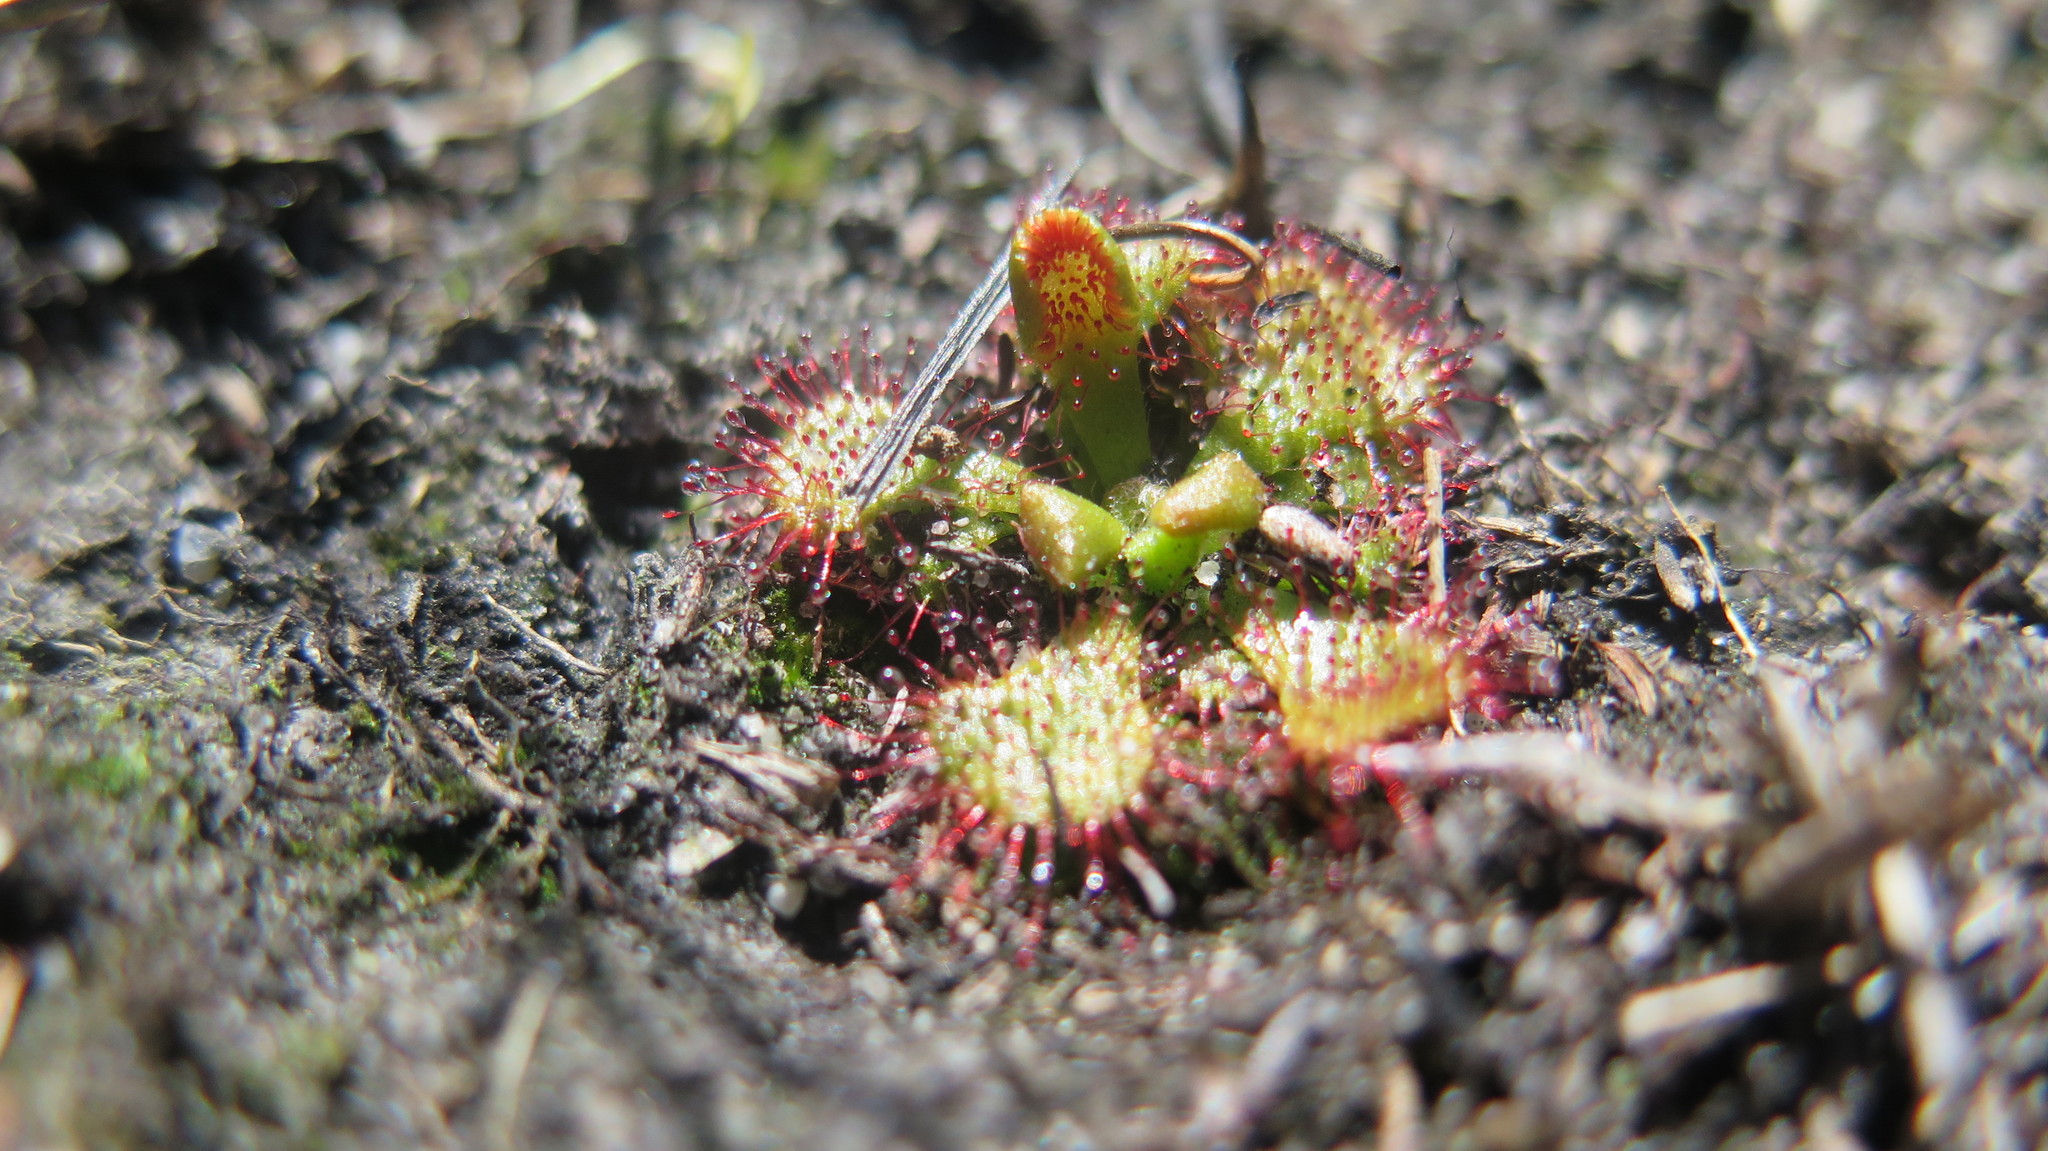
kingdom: Plantae
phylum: Tracheophyta
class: Magnoliopsida
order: Caryophyllales
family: Droseraceae
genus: Drosera
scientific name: Drosera natalensis
